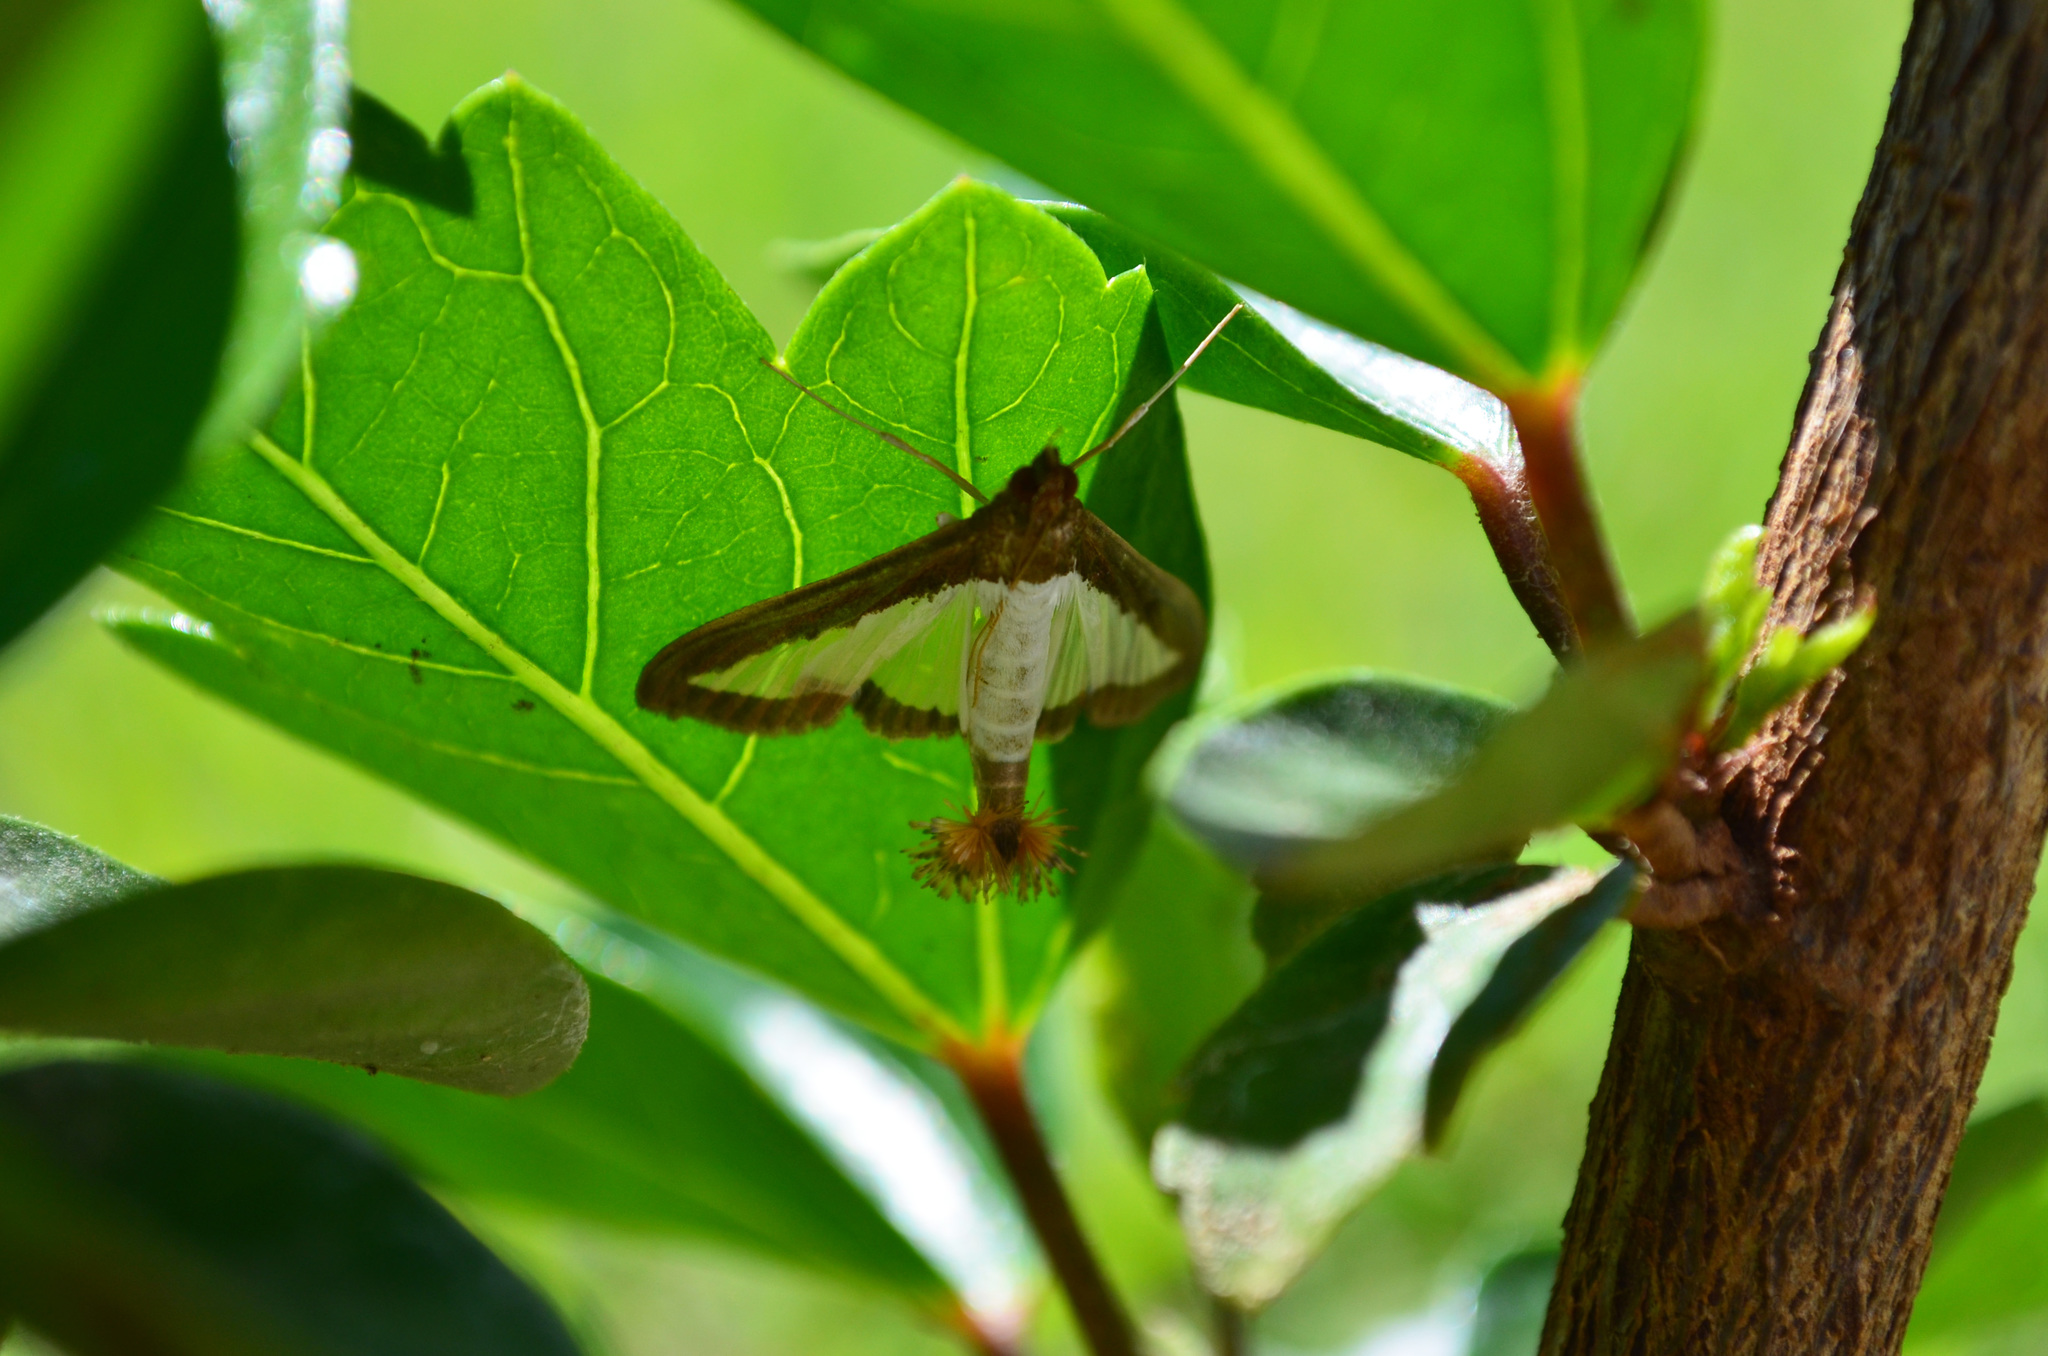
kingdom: Animalia
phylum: Arthropoda
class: Insecta
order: Lepidoptera
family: Crambidae
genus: Diaphania
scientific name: Diaphania hyalinata
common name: Melonworm
